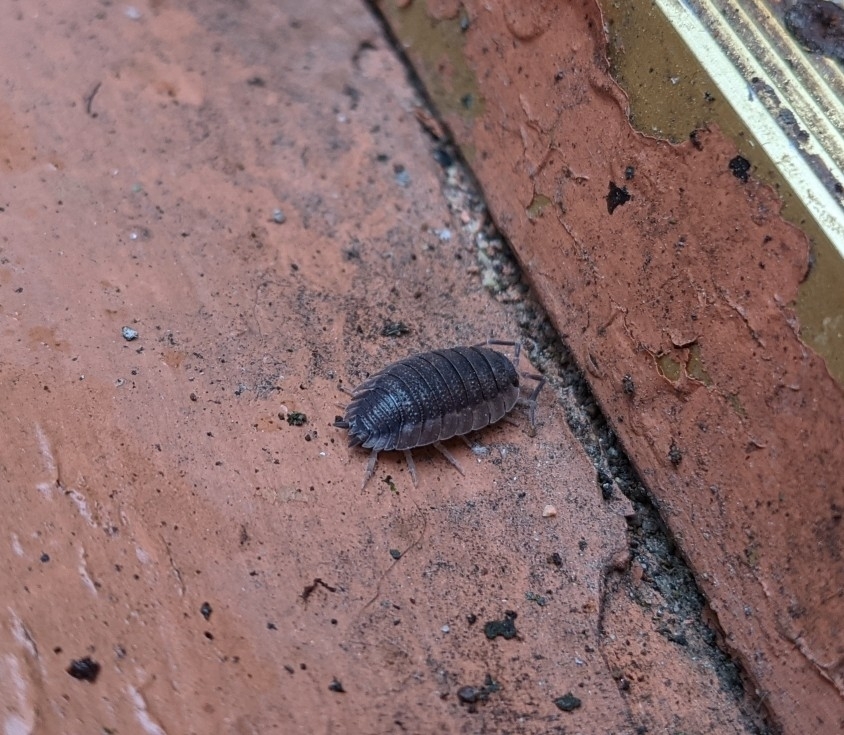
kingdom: Animalia
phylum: Arthropoda
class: Malacostraca
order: Isopoda
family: Porcellionidae
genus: Porcellio
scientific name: Porcellio scaber
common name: Common rough woodlouse
